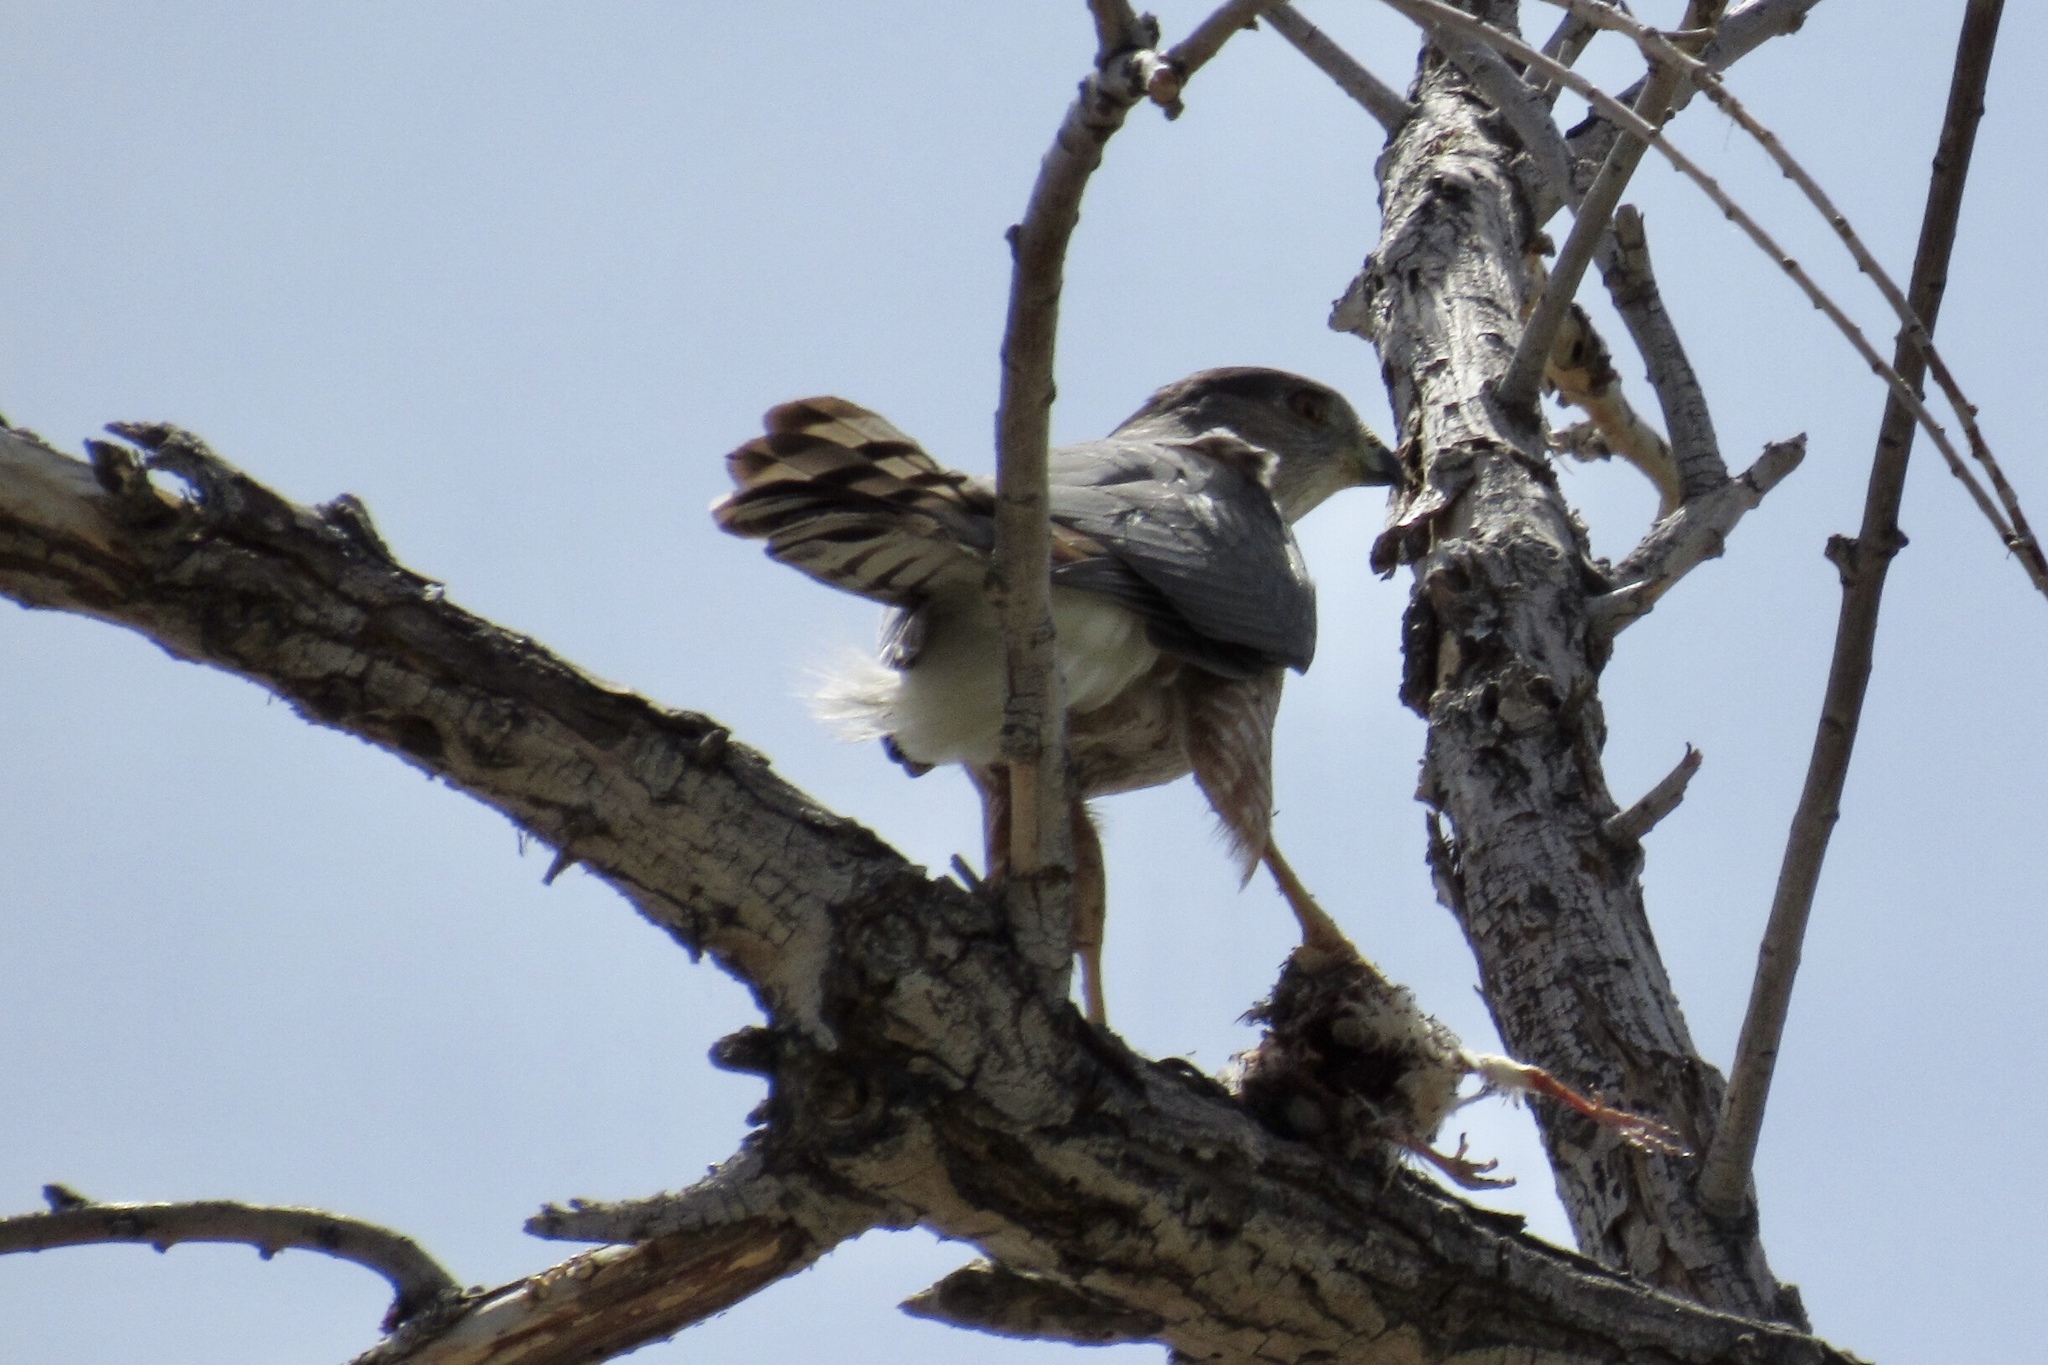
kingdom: Animalia
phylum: Chordata
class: Aves
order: Accipitriformes
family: Accipitridae
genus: Accipiter
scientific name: Accipiter cooperii
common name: Cooper's hawk
